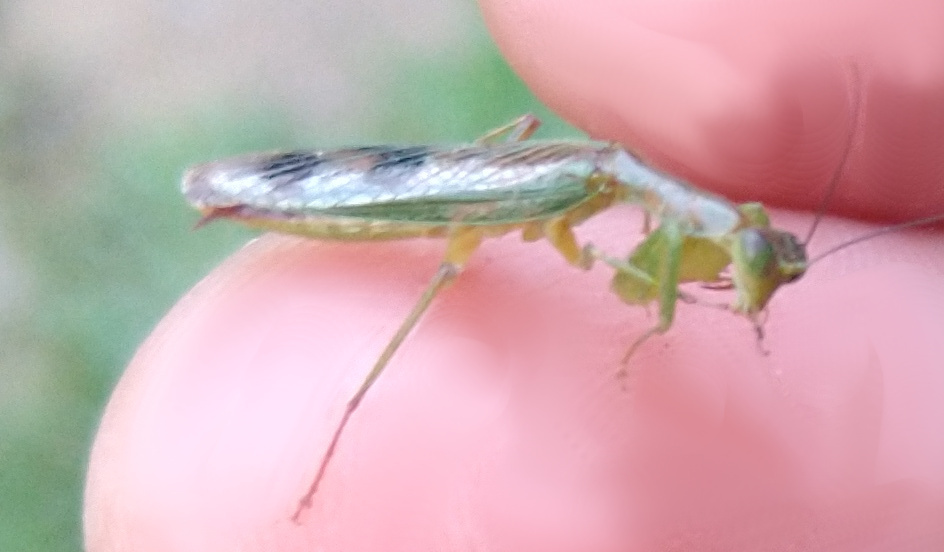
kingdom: Animalia
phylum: Arthropoda
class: Insecta
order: Mantodea
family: Acanthopidae
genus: Acontista
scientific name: Acontista concinna
